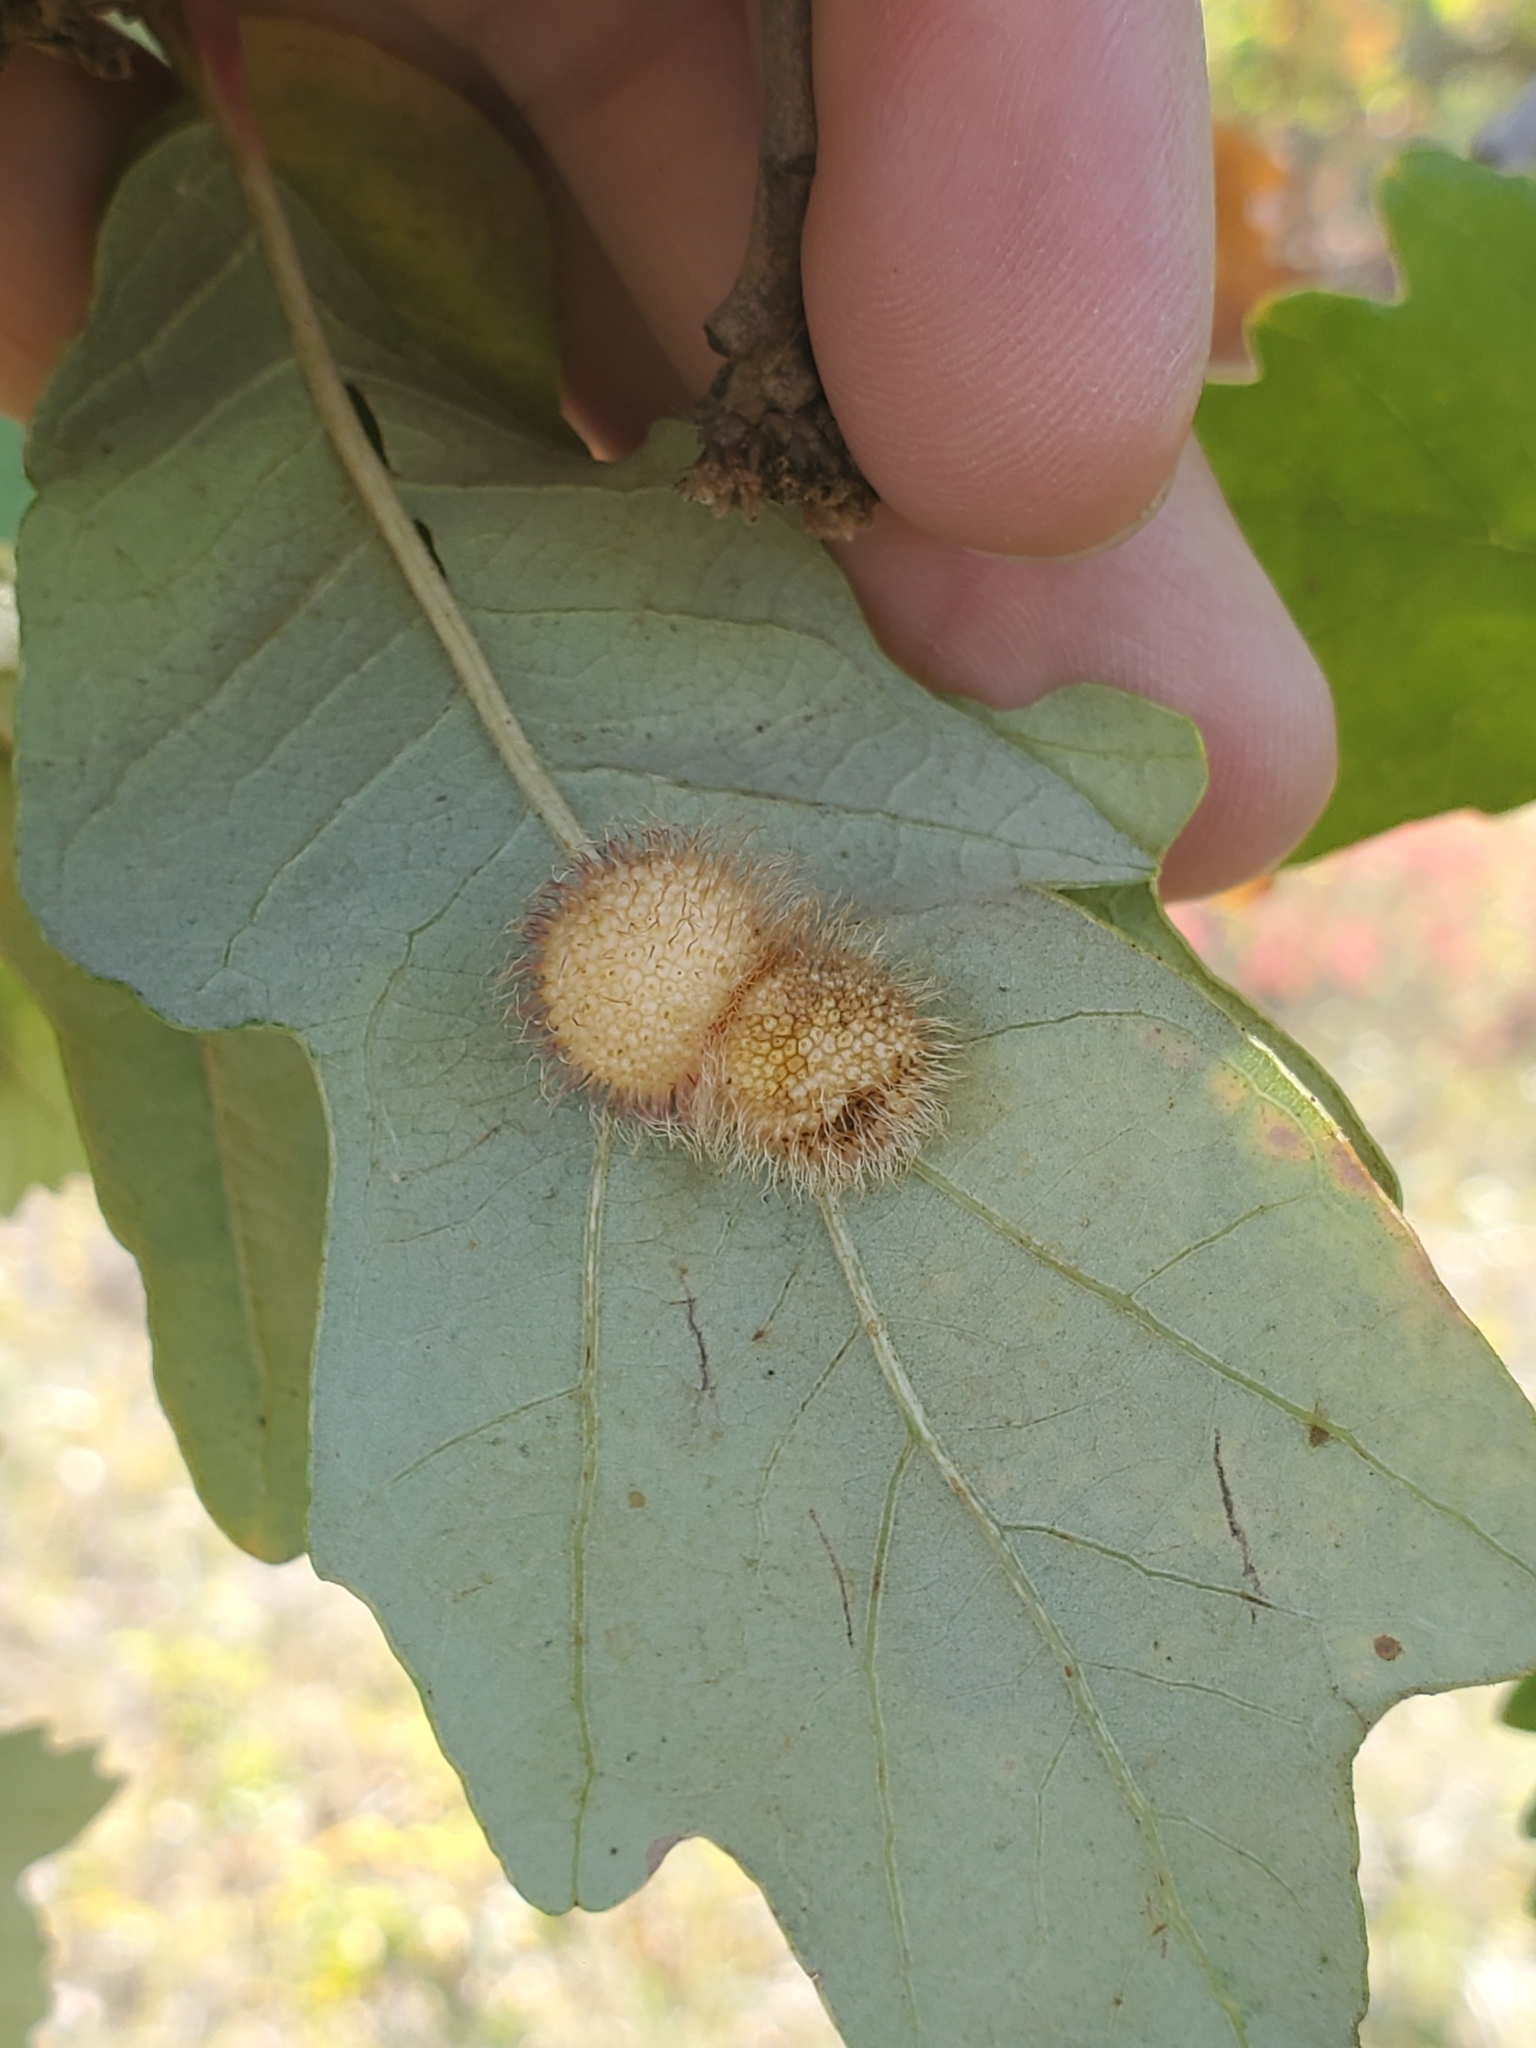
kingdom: Animalia
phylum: Arthropoda
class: Insecta
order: Hymenoptera
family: Cynipidae
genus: Acraspis
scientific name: Acraspis villosa
